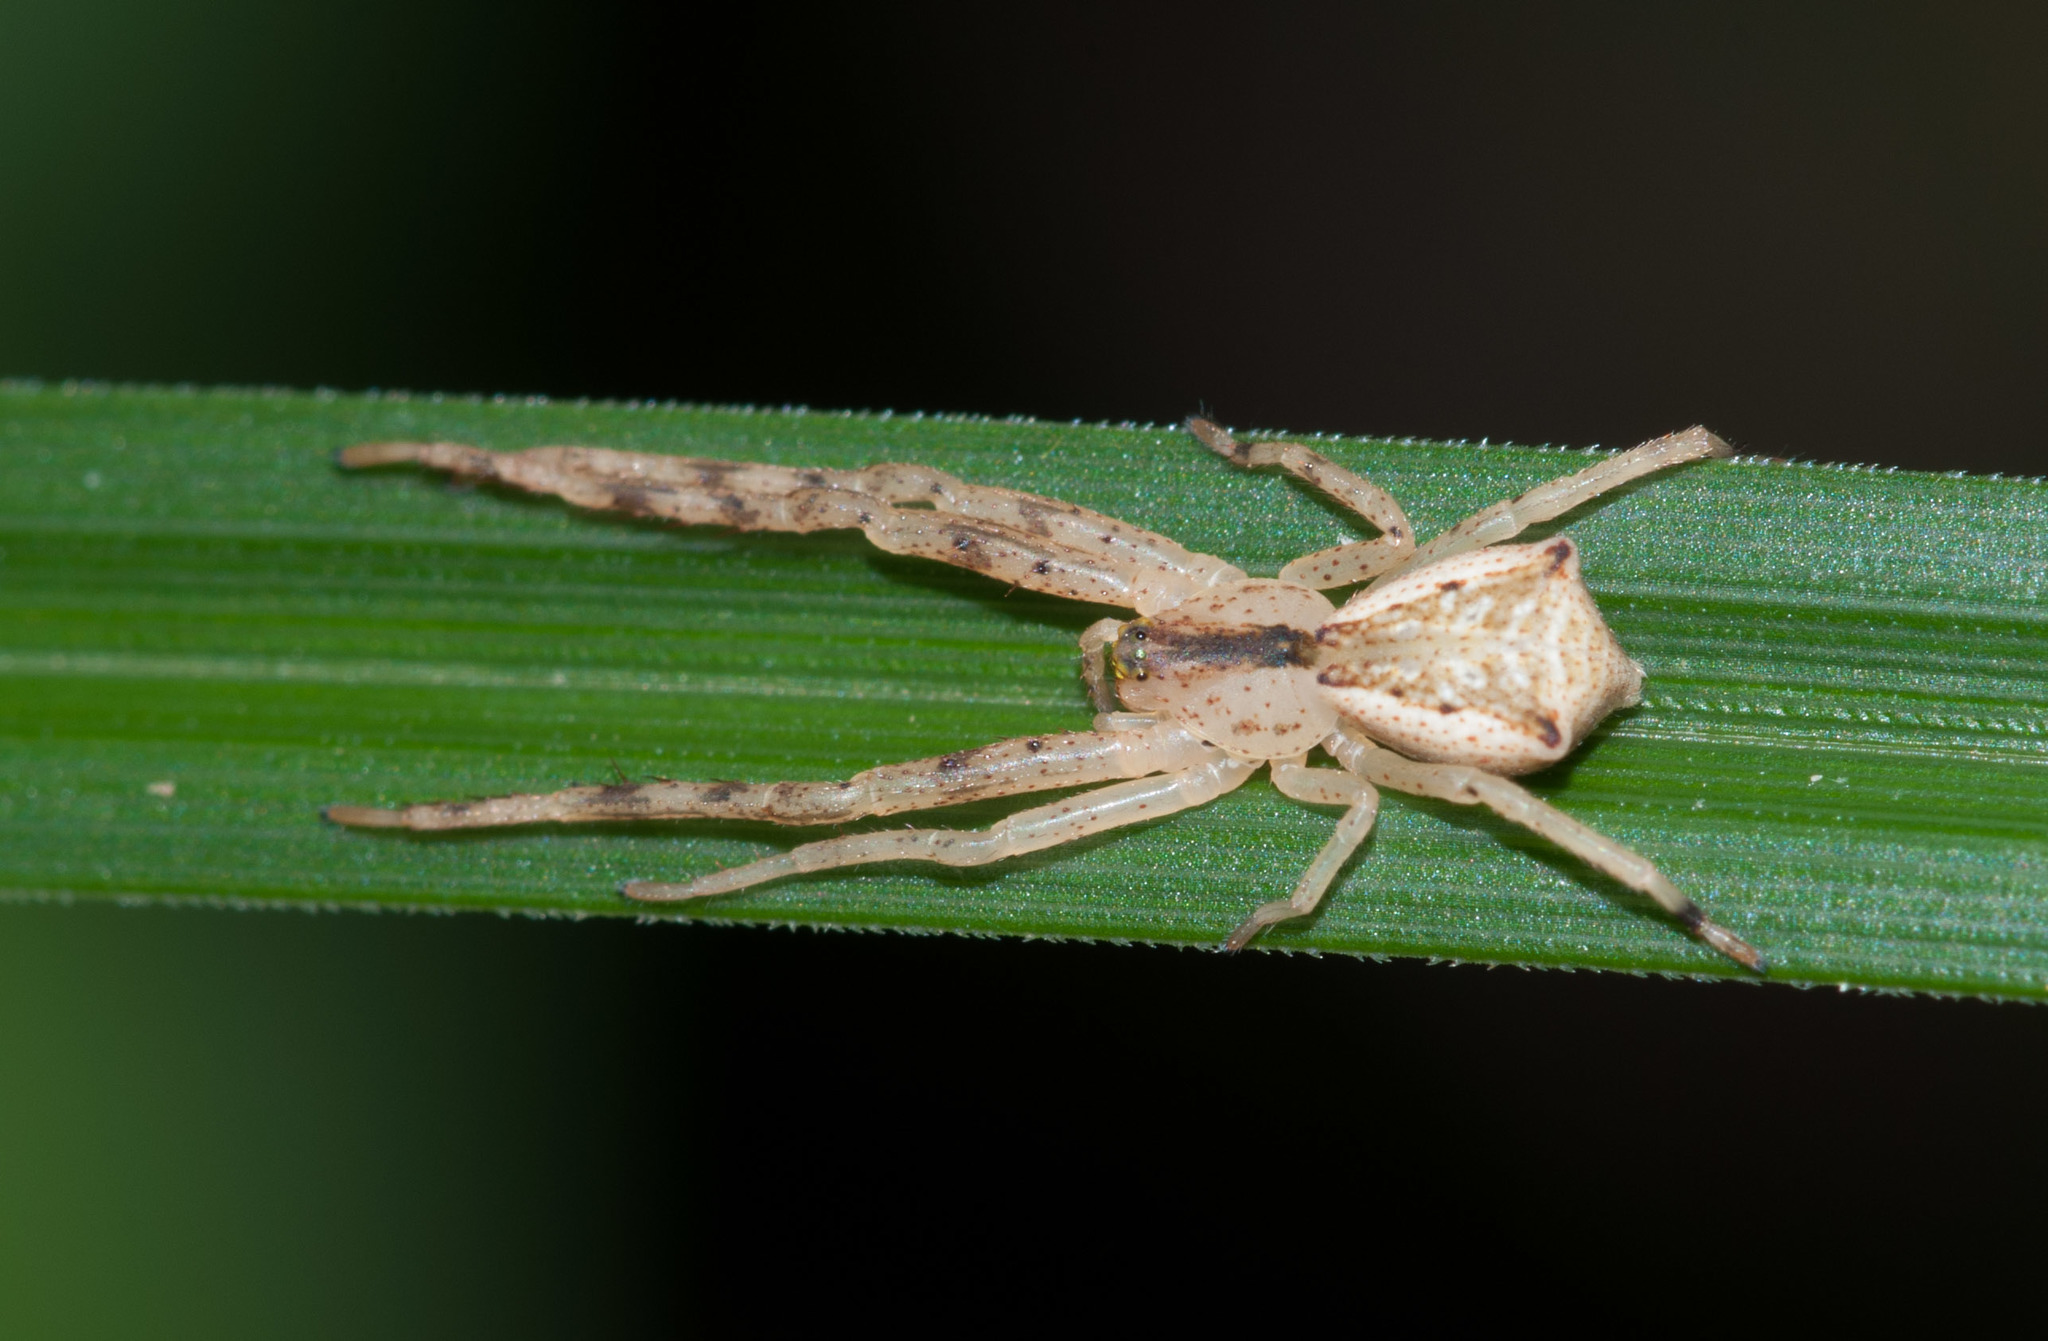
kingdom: Animalia
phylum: Arthropoda
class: Arachnida
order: Araneae
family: Thomisidae
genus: Sidymella
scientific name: Sidymella rubrosignata
